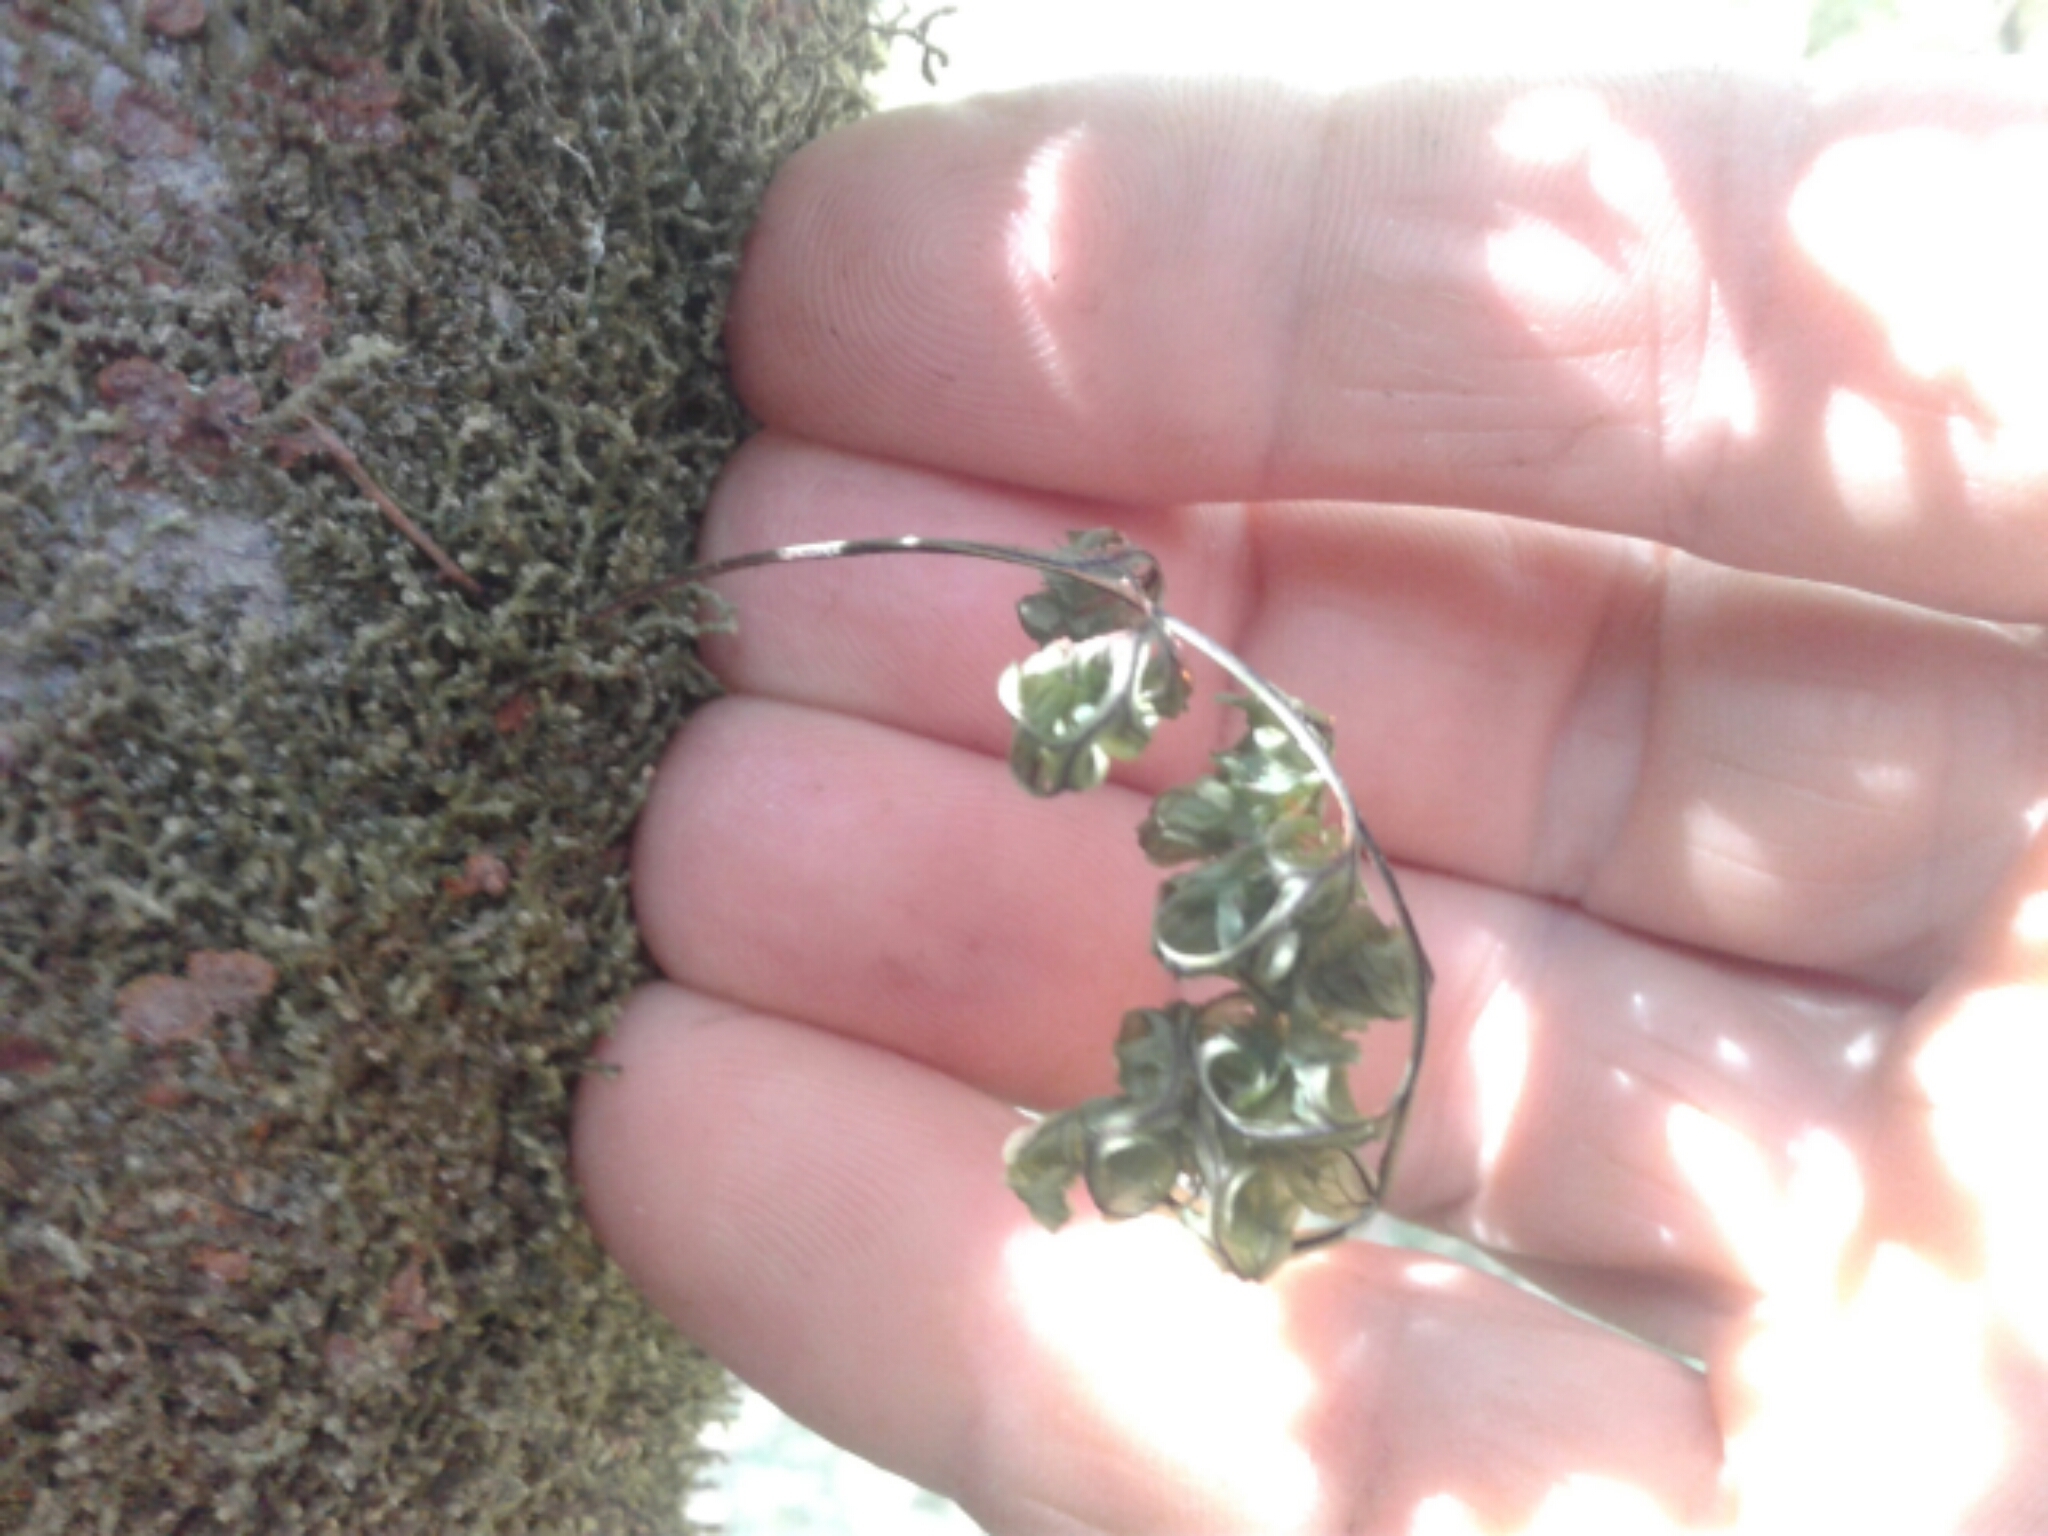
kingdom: Plantae
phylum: Tracheophyta
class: Polypodiopsida
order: Hymenophyllales
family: Hymenophyllaceae
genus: Hymenophyllum
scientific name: Hymenophyllum
